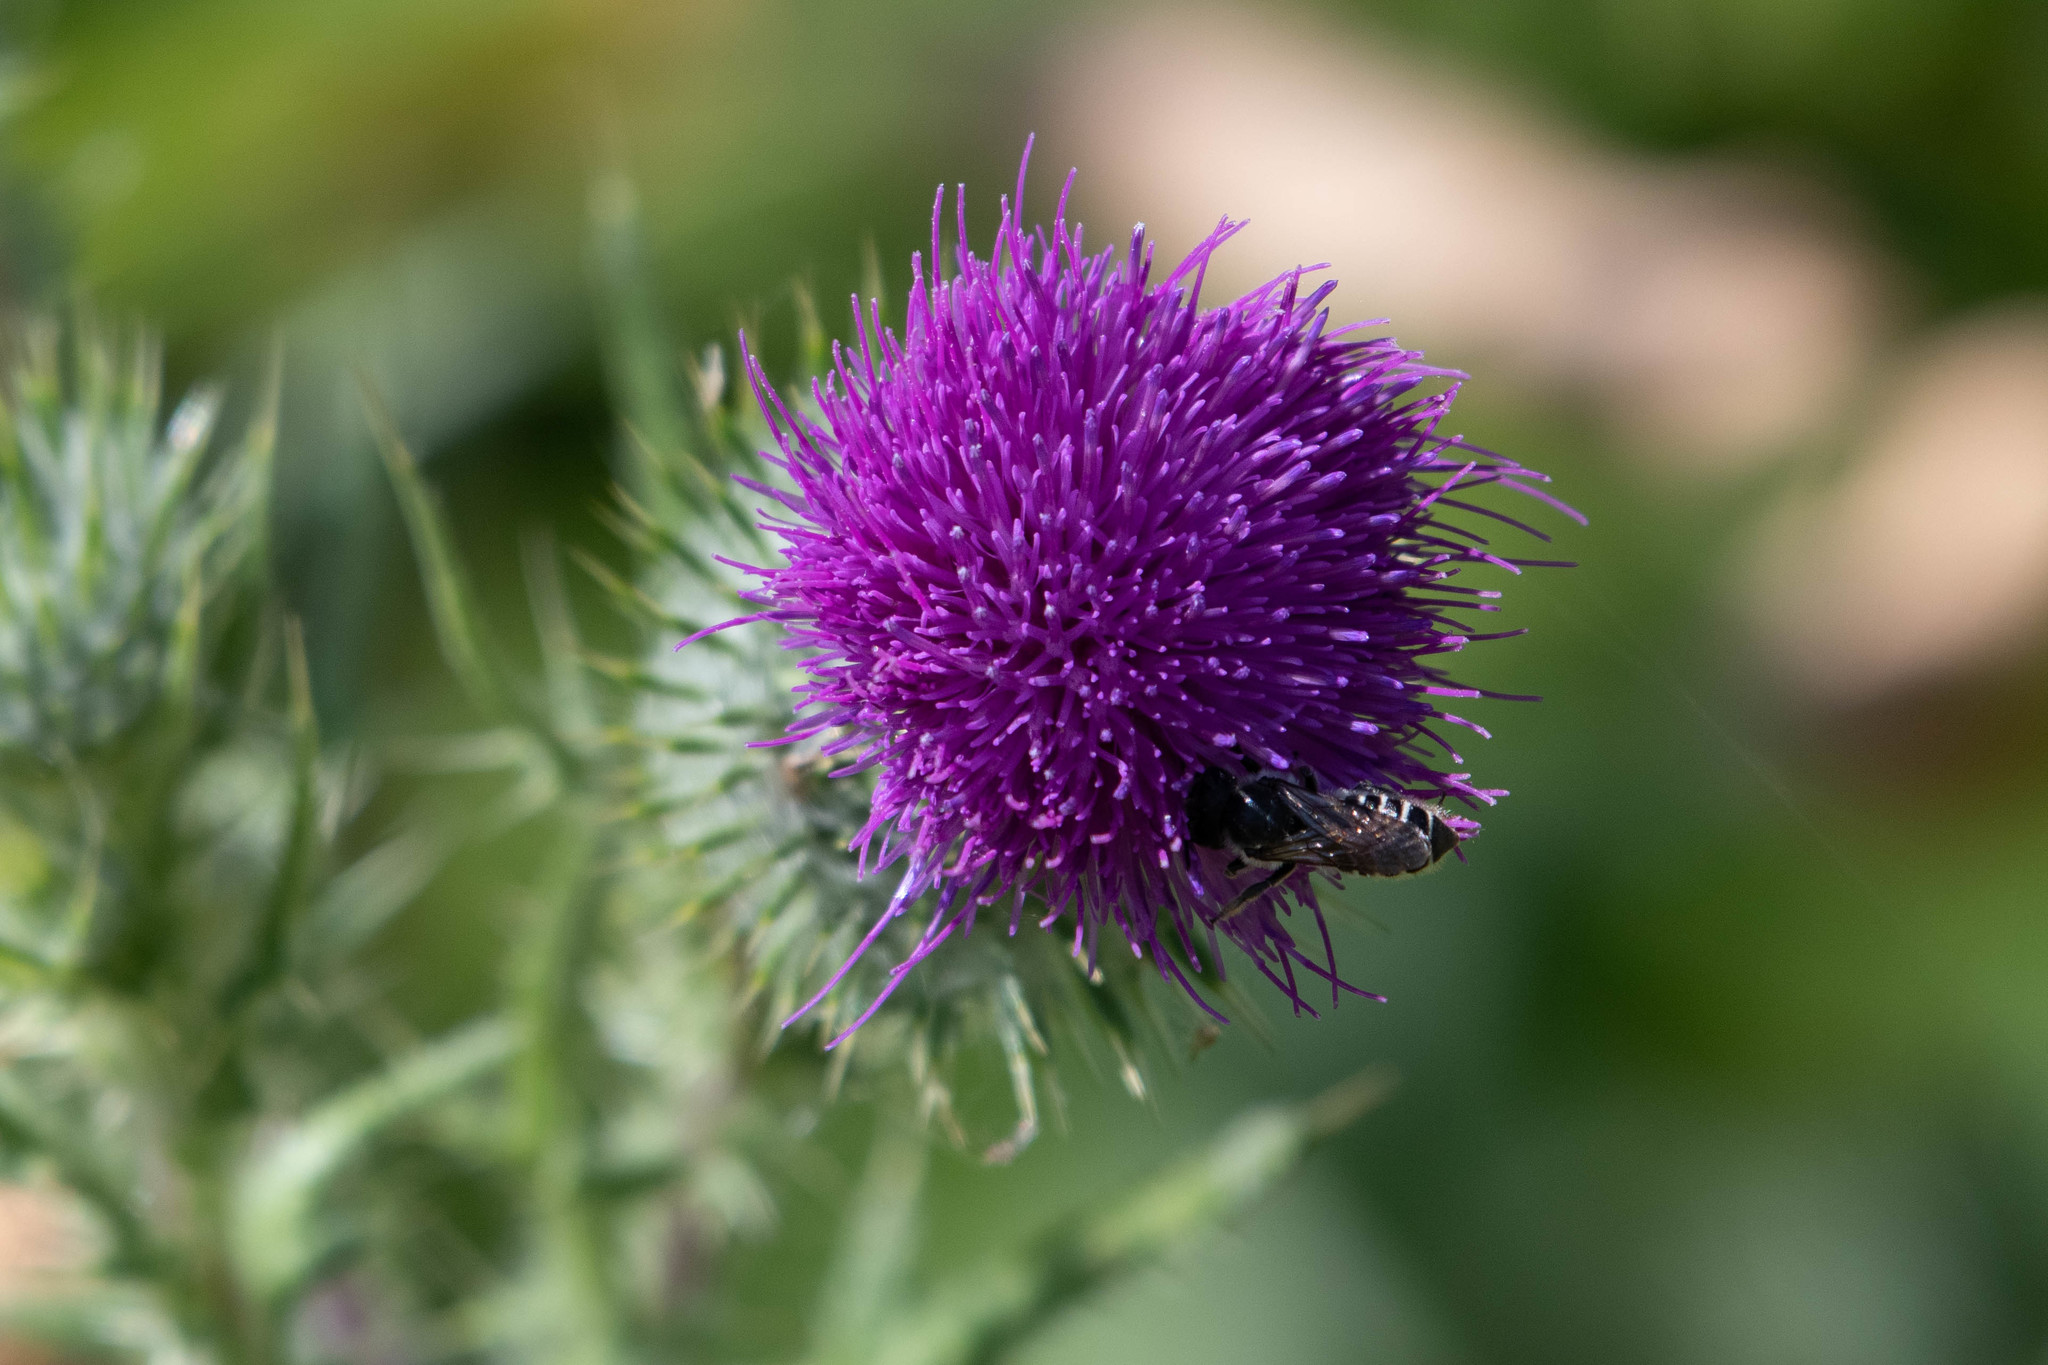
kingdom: Plantae
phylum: Tracheophyta
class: Magnoliopsida
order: Asterales
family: Asteraceae
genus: Cirsium
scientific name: Cirsium vulgare
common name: Bull thistle
